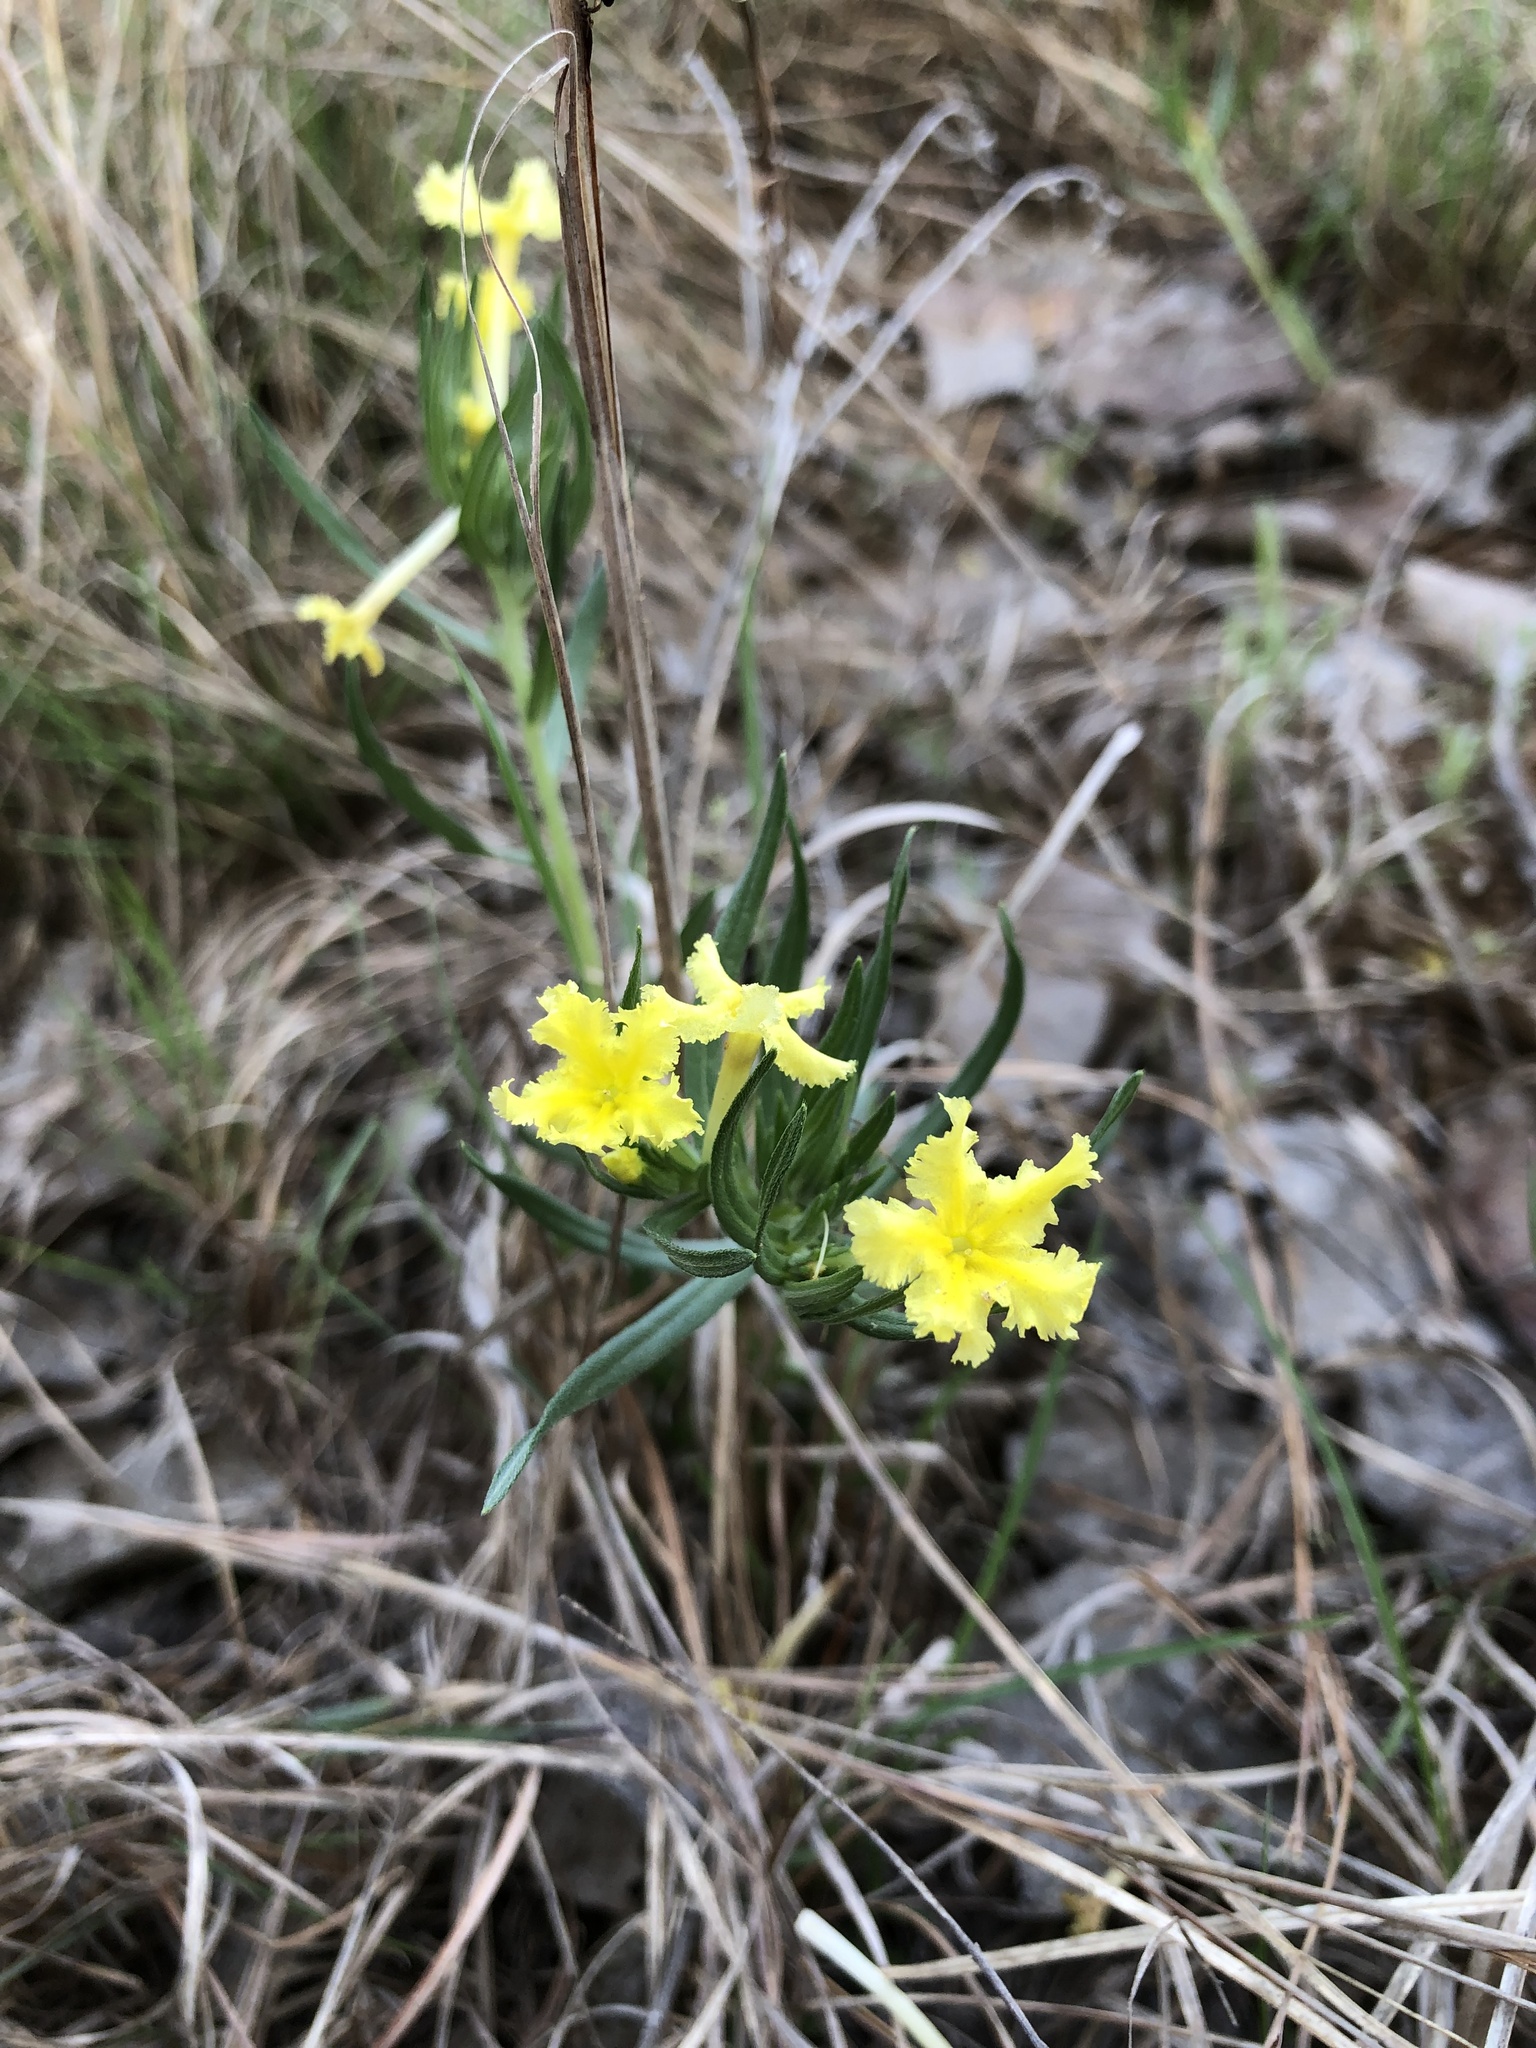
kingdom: Plantae
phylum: Tracheophyta
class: Magnoliopsida
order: Boraginales
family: Boraginaceae
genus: Lithospermum
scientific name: Lithospermum incisum
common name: Fringed gromwell
